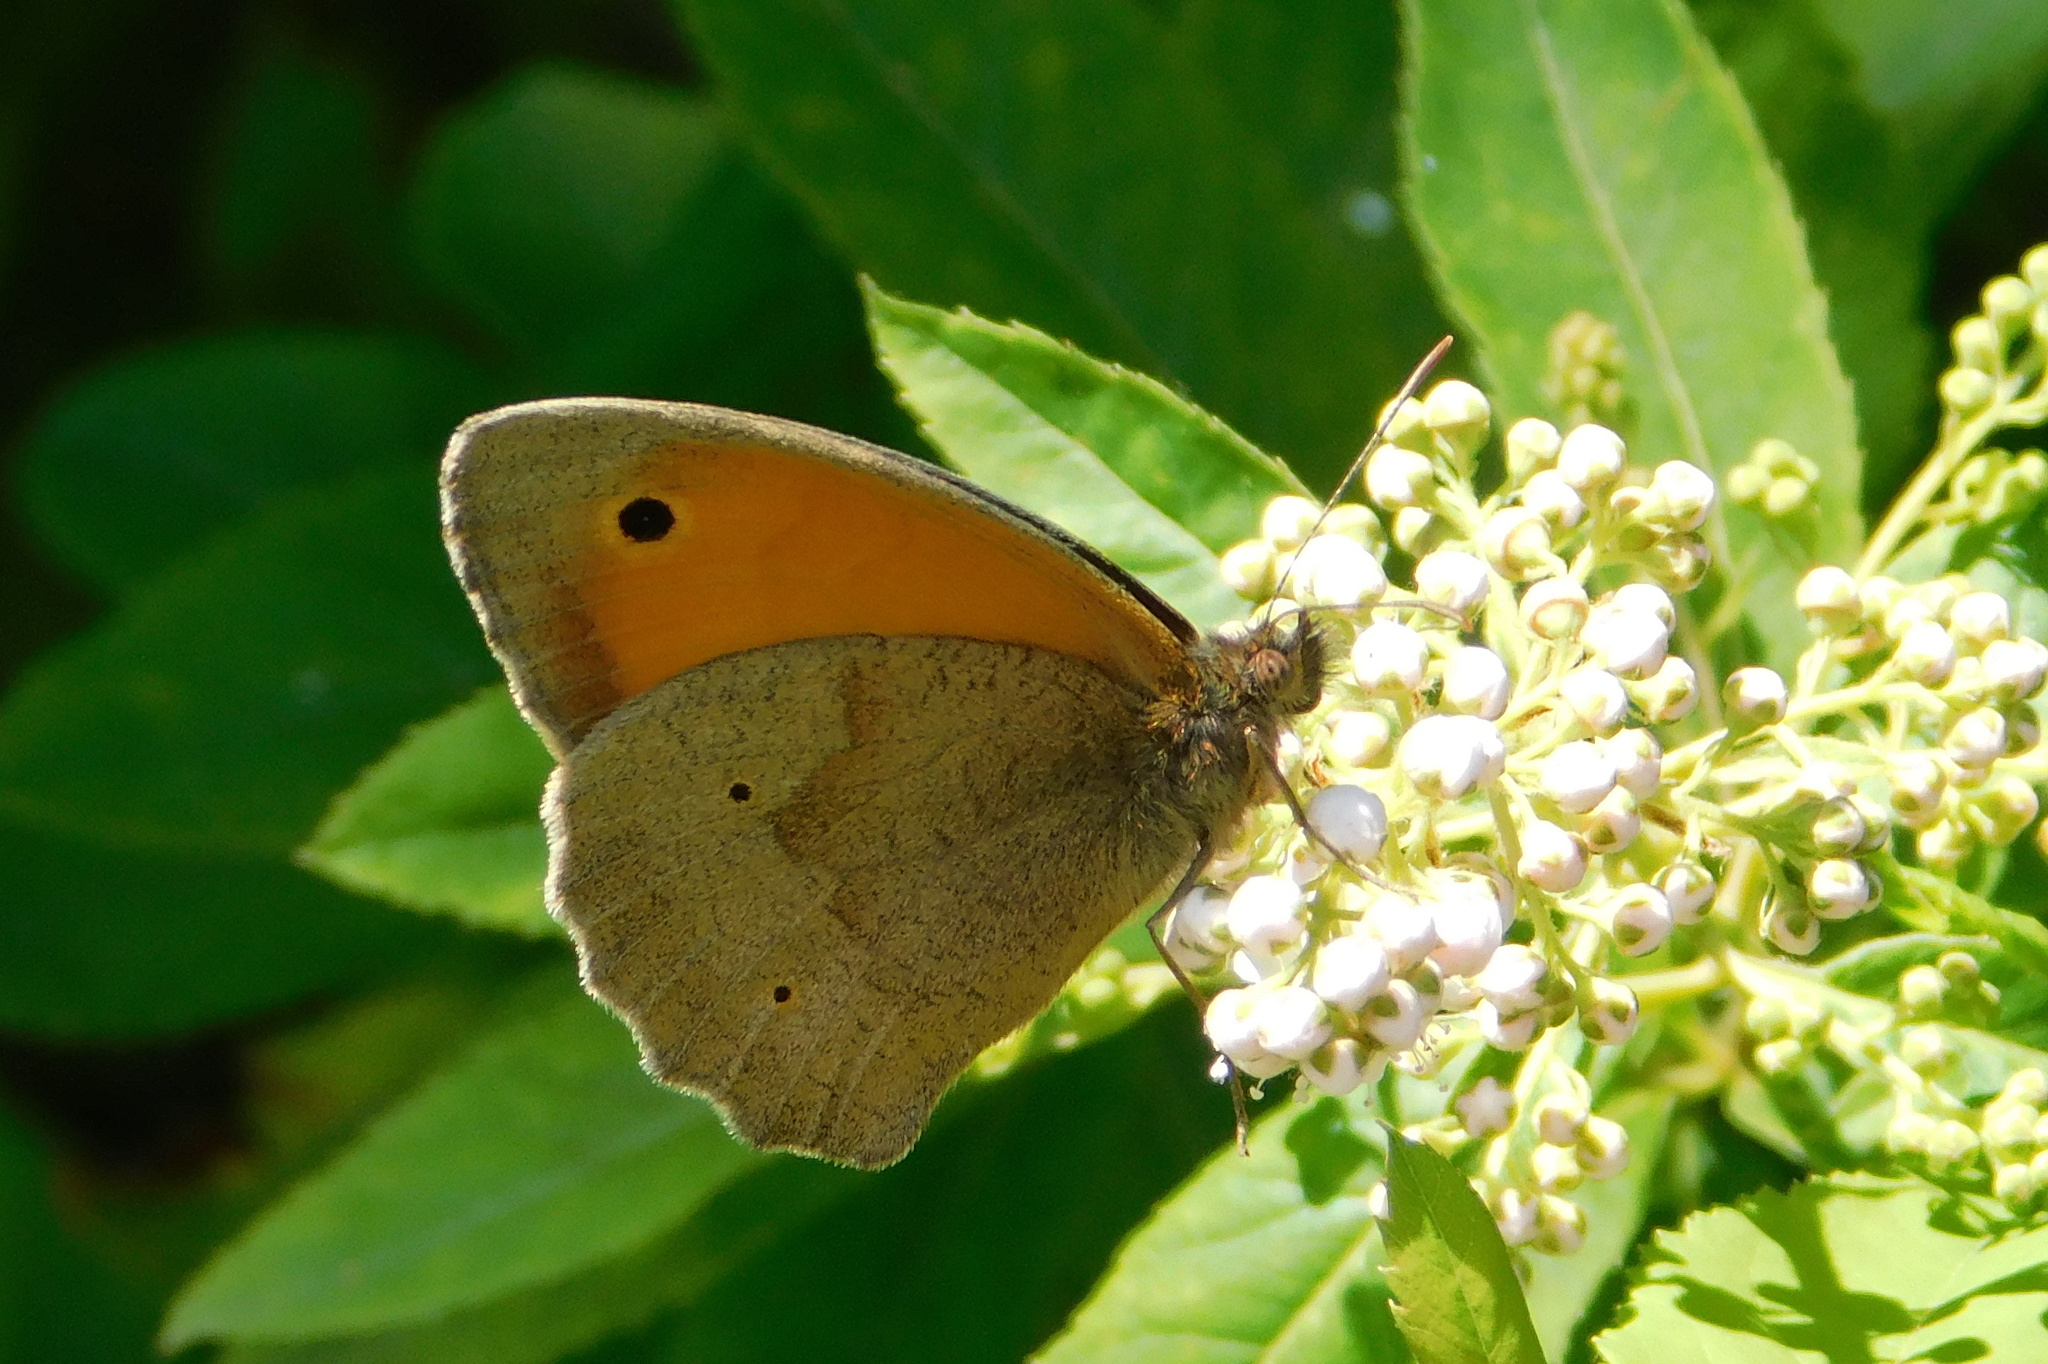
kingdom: Animalia
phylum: Arthropoda
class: Insecta
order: Lepidoptera
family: Nymphalidae
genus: Maniola
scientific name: Maniola jurtina
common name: Meadow brown
